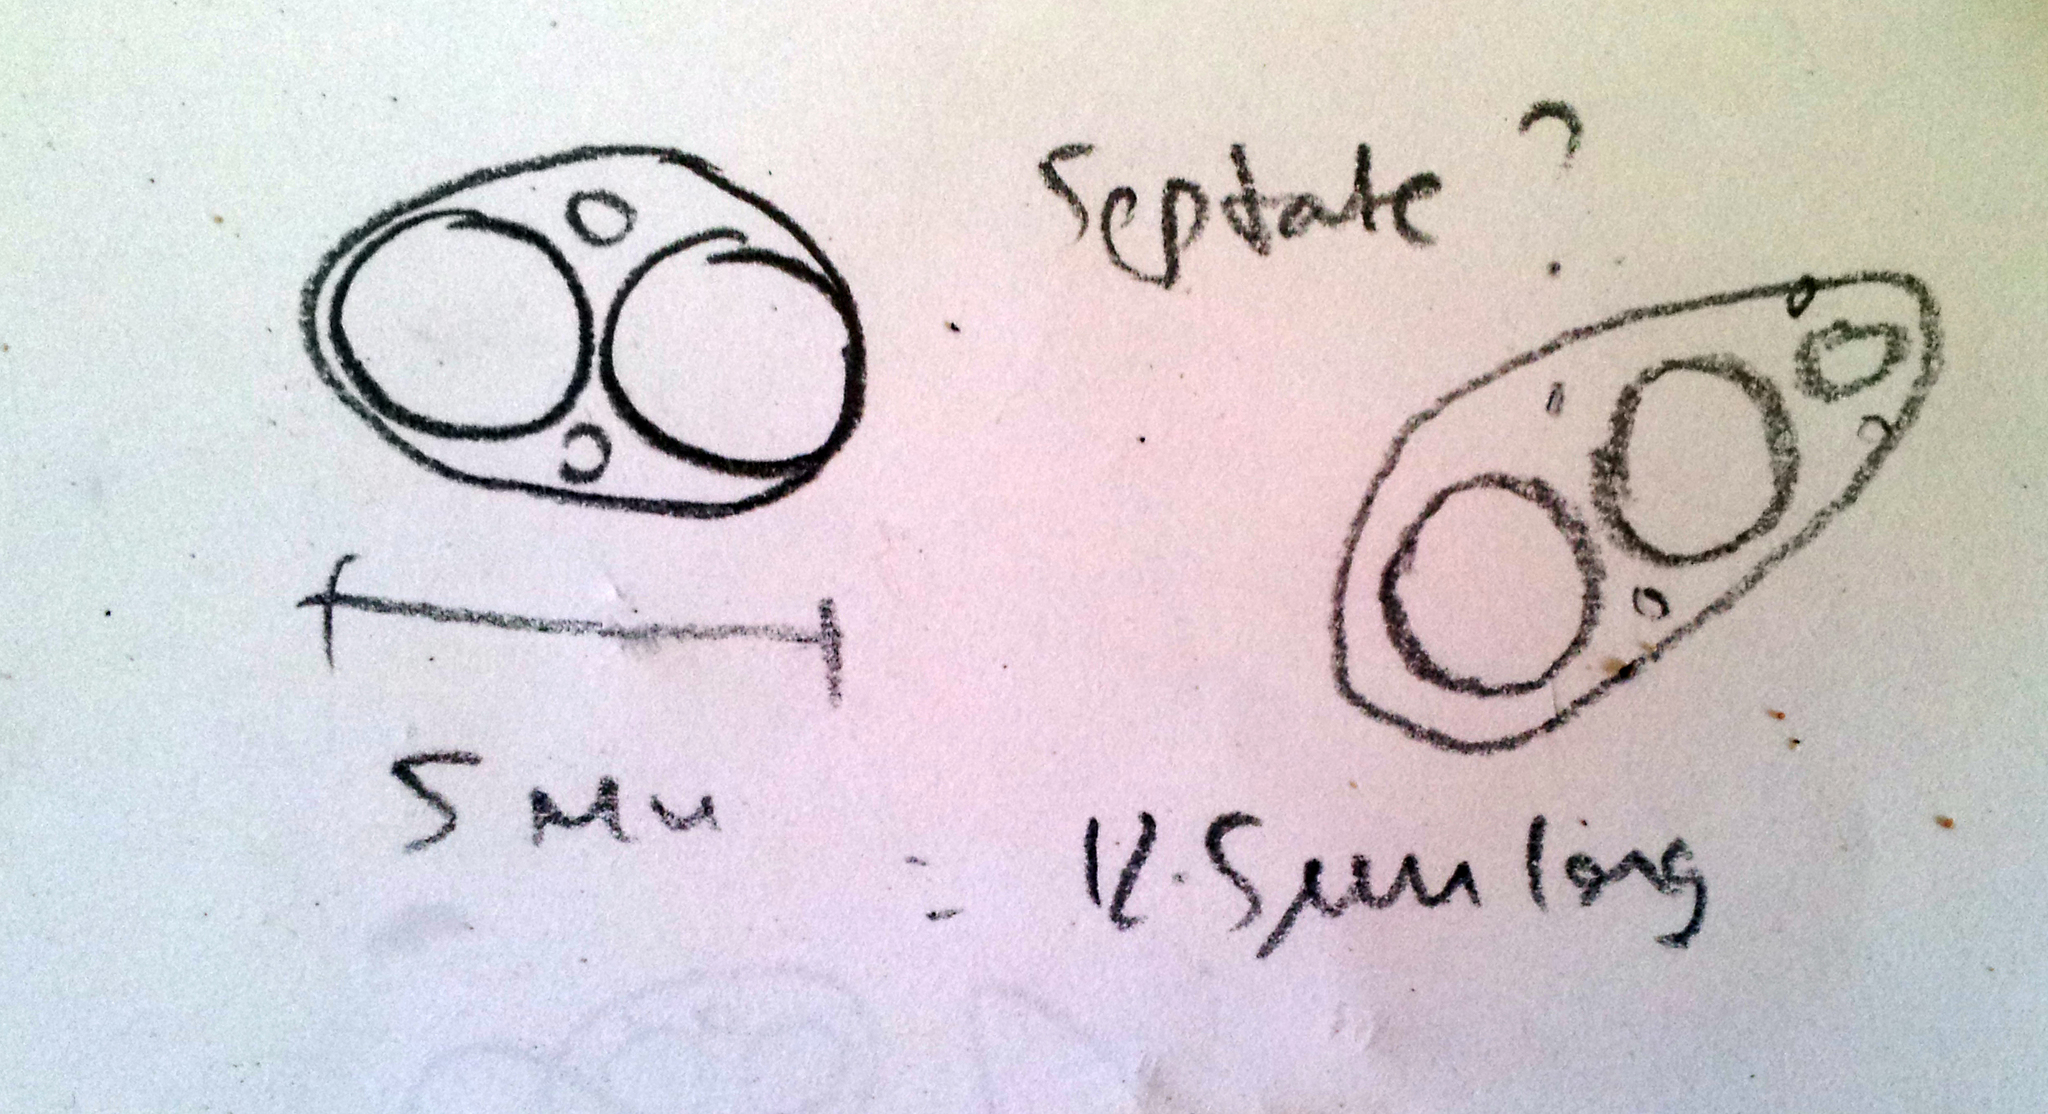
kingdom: Fungi
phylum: Ascomycota
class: Lecanoromycetes
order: Lecanorales
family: Lecanoraceae
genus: Lecanora
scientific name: Lecanora kohu
